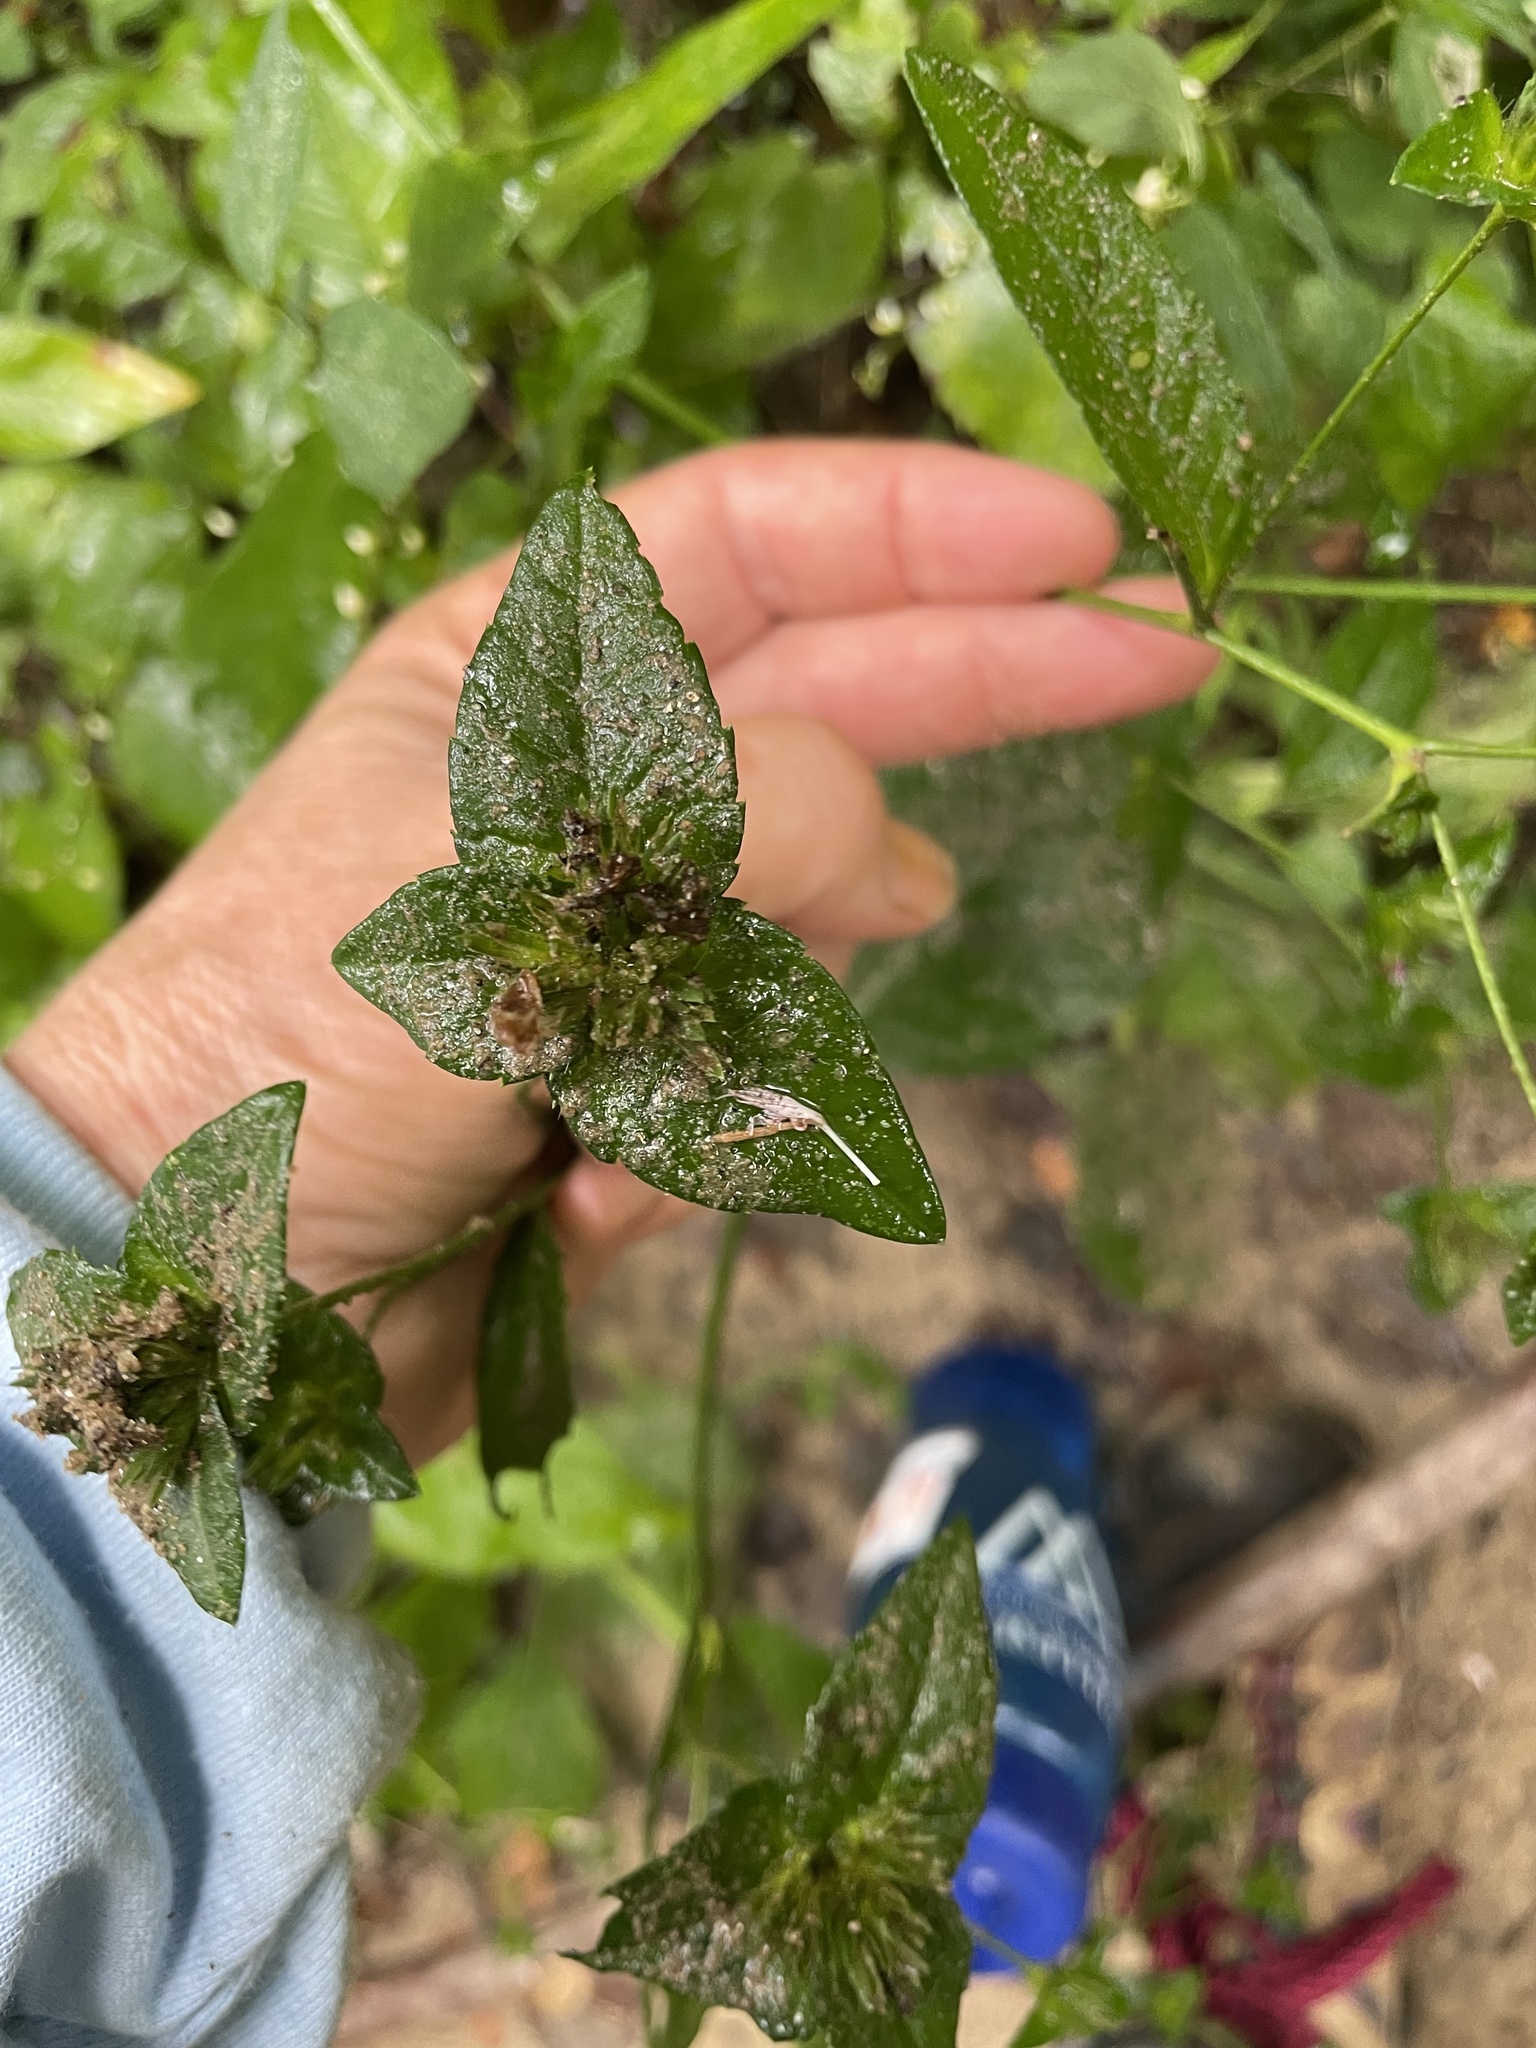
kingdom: Plantae
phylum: Tracheophyta
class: Magnoliopsida
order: Asterales
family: Asteraceae
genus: Elephantopus
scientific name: Elephantopus carolinianus
